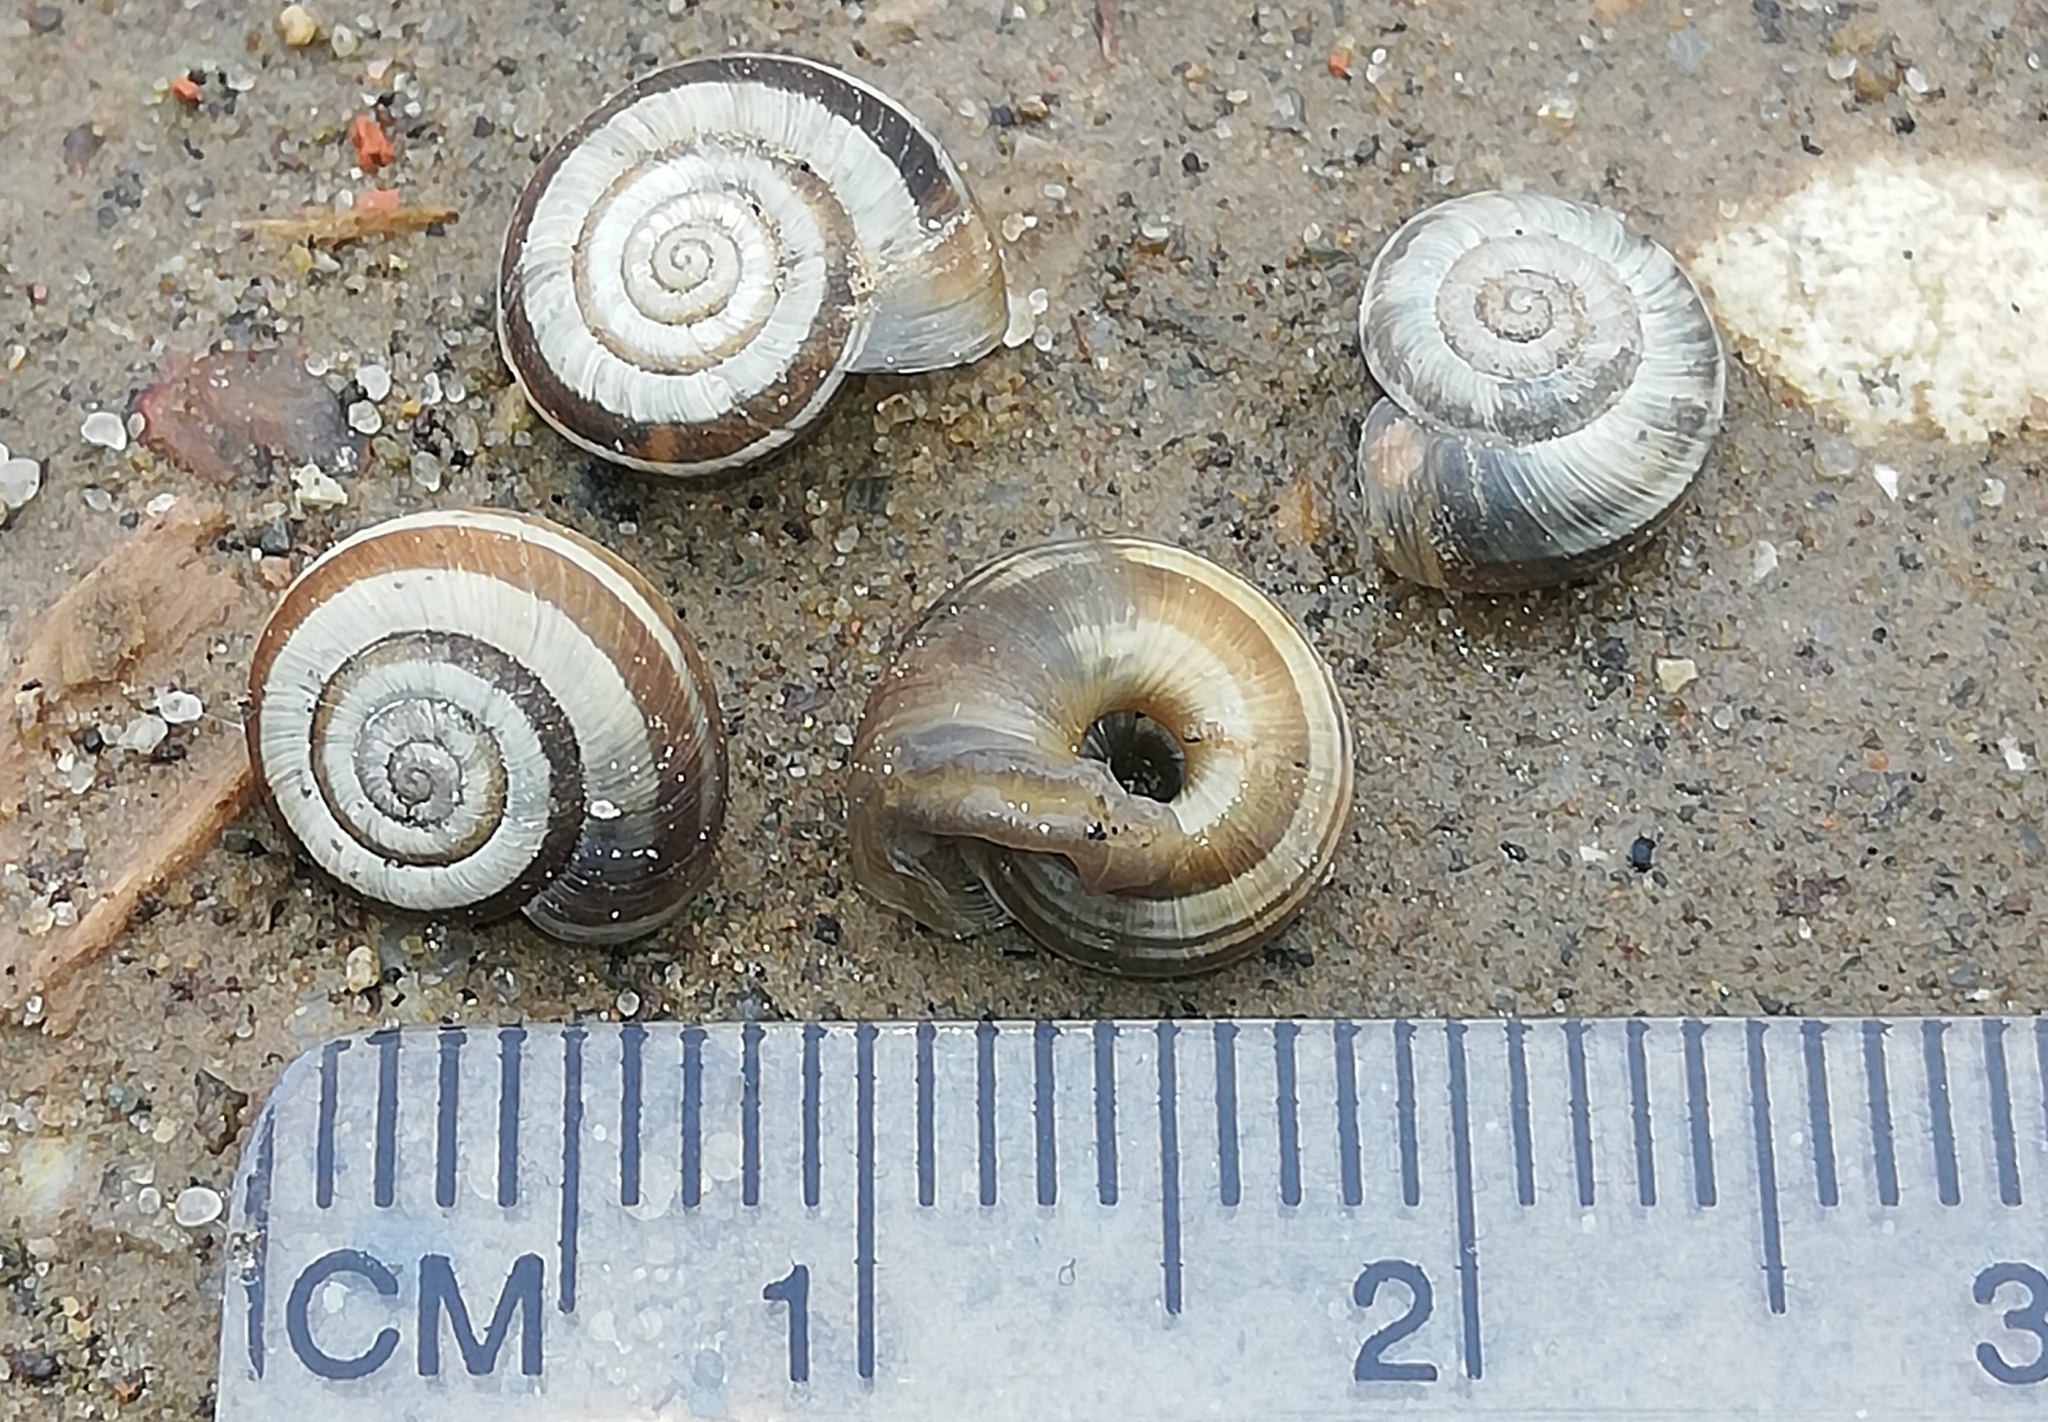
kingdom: Animalia
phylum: Mollusca
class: Gastropoda
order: Stylommatophora
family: Geomitridae
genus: Helicella
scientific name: Helicella itala
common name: Heath snail
